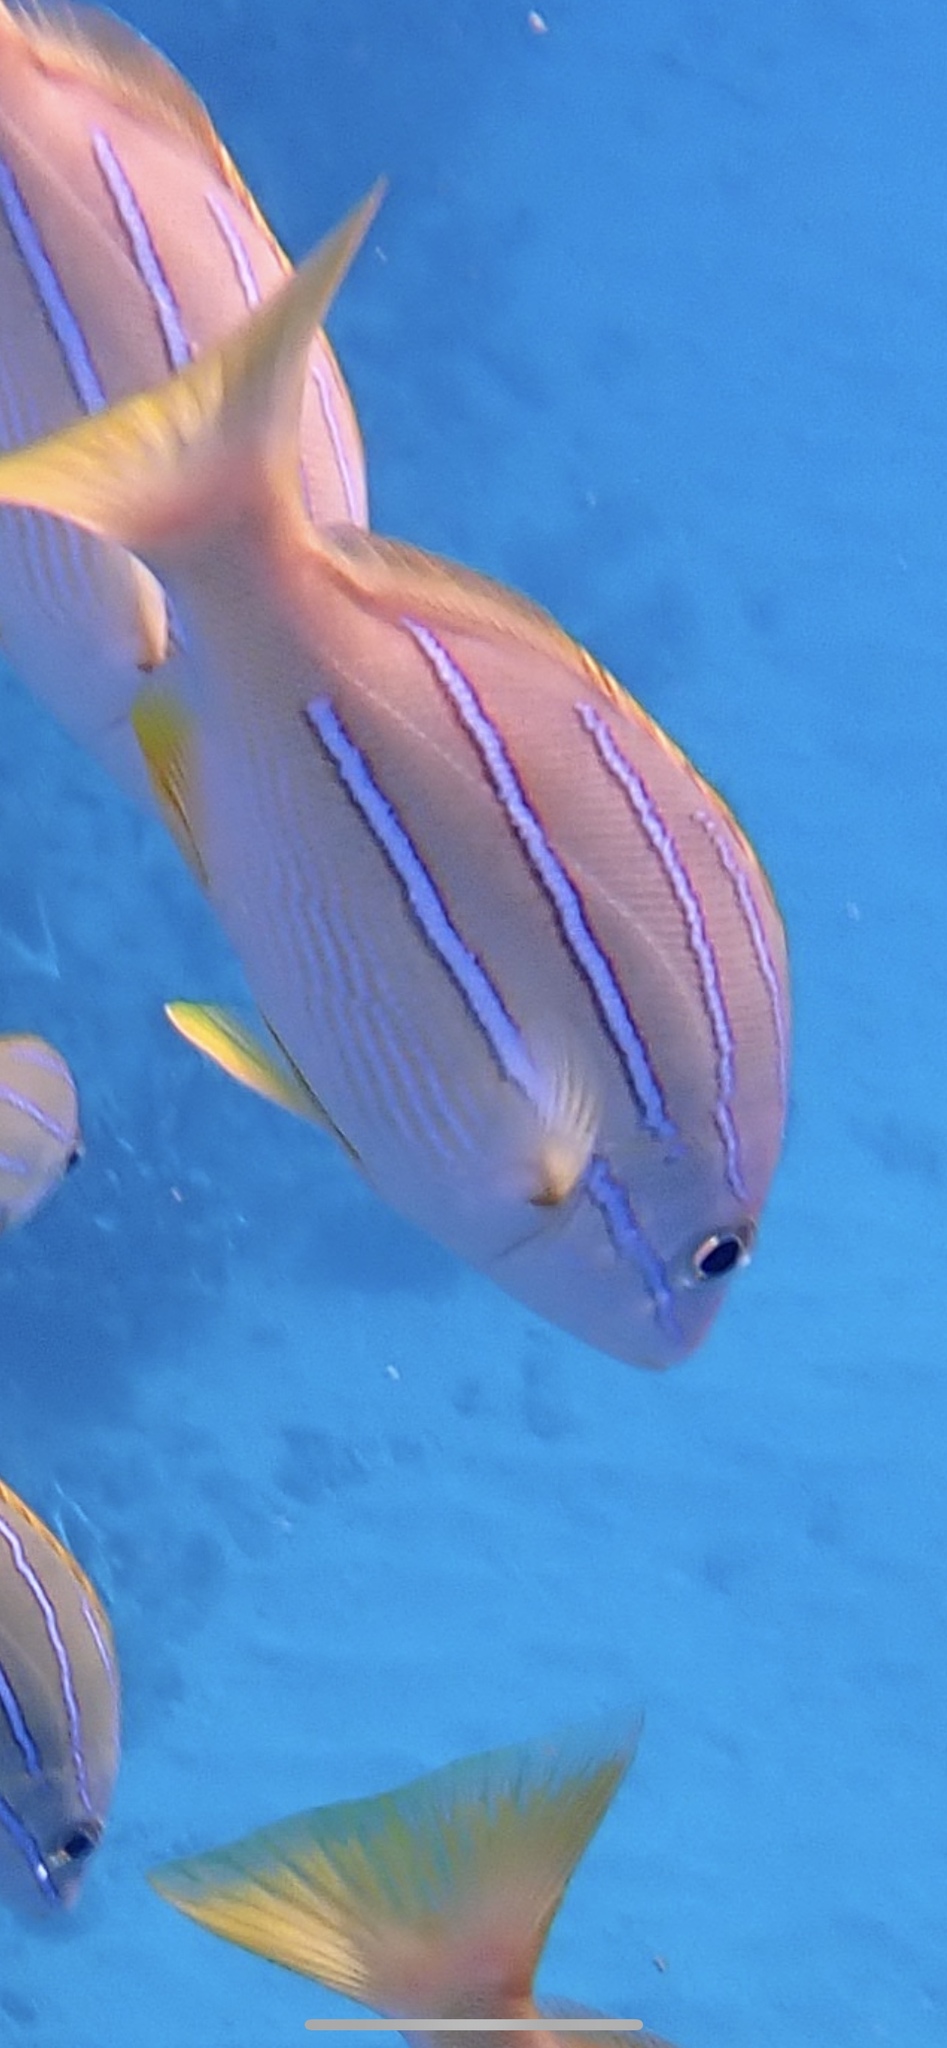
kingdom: Animalia
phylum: Chordata
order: Perciformes
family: Lutjanidae
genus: Lutjanus
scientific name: Lutjanus kasmira
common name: Common bluestripe snapper
